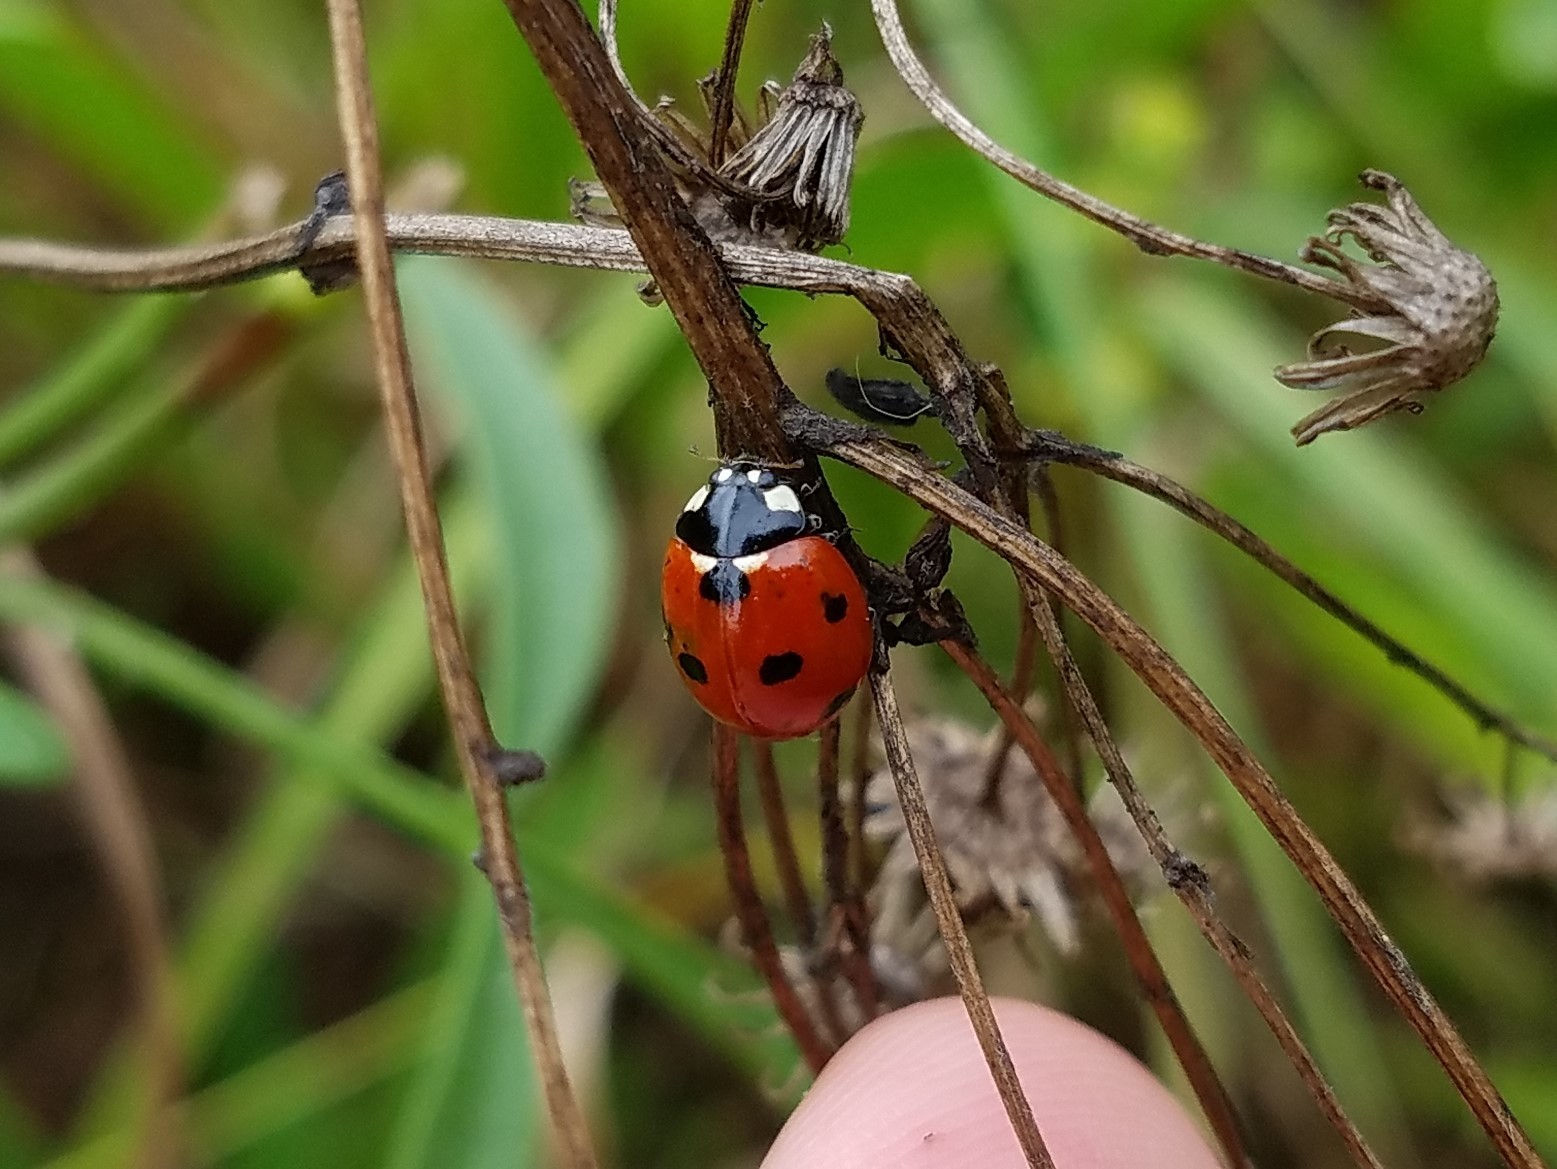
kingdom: Animalia
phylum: Arthropoda
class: Insecta
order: Coleoptera
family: Coccinellidae
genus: Coccinella
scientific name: Coccinella septempunctata
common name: Sevenspotted lady beetle
